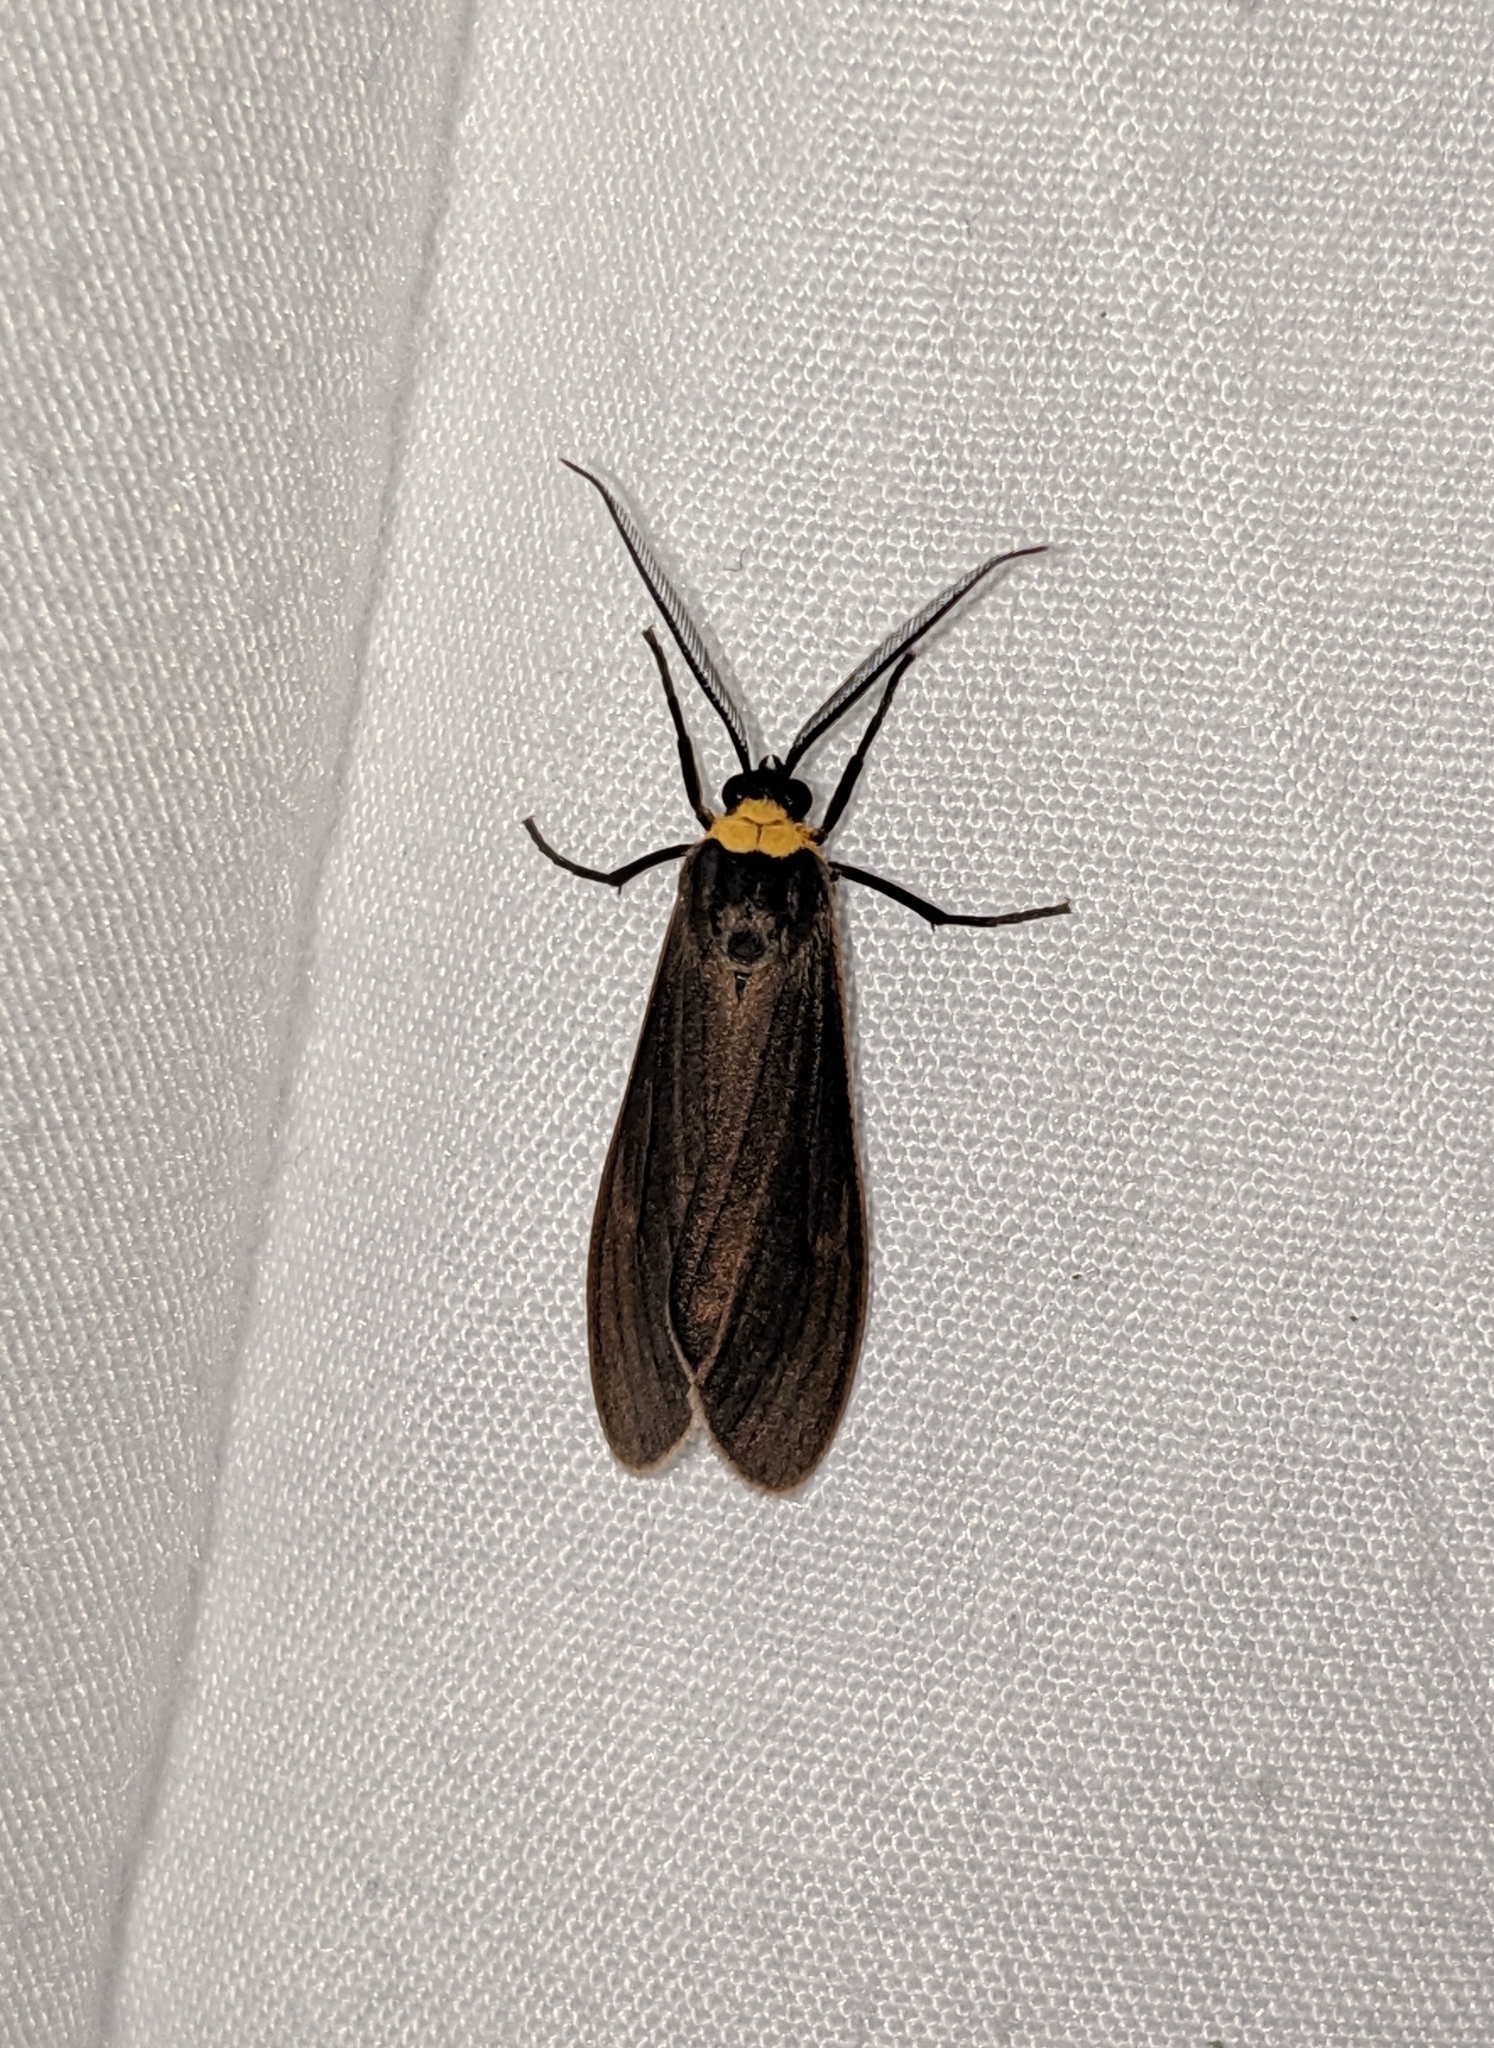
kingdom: Animalia
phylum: Arthropoda
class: Insecta
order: Lepidoptera
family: Erebidae
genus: Cisseps
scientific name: Cisseps fulvicollis
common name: Yellow-collared scape moth
